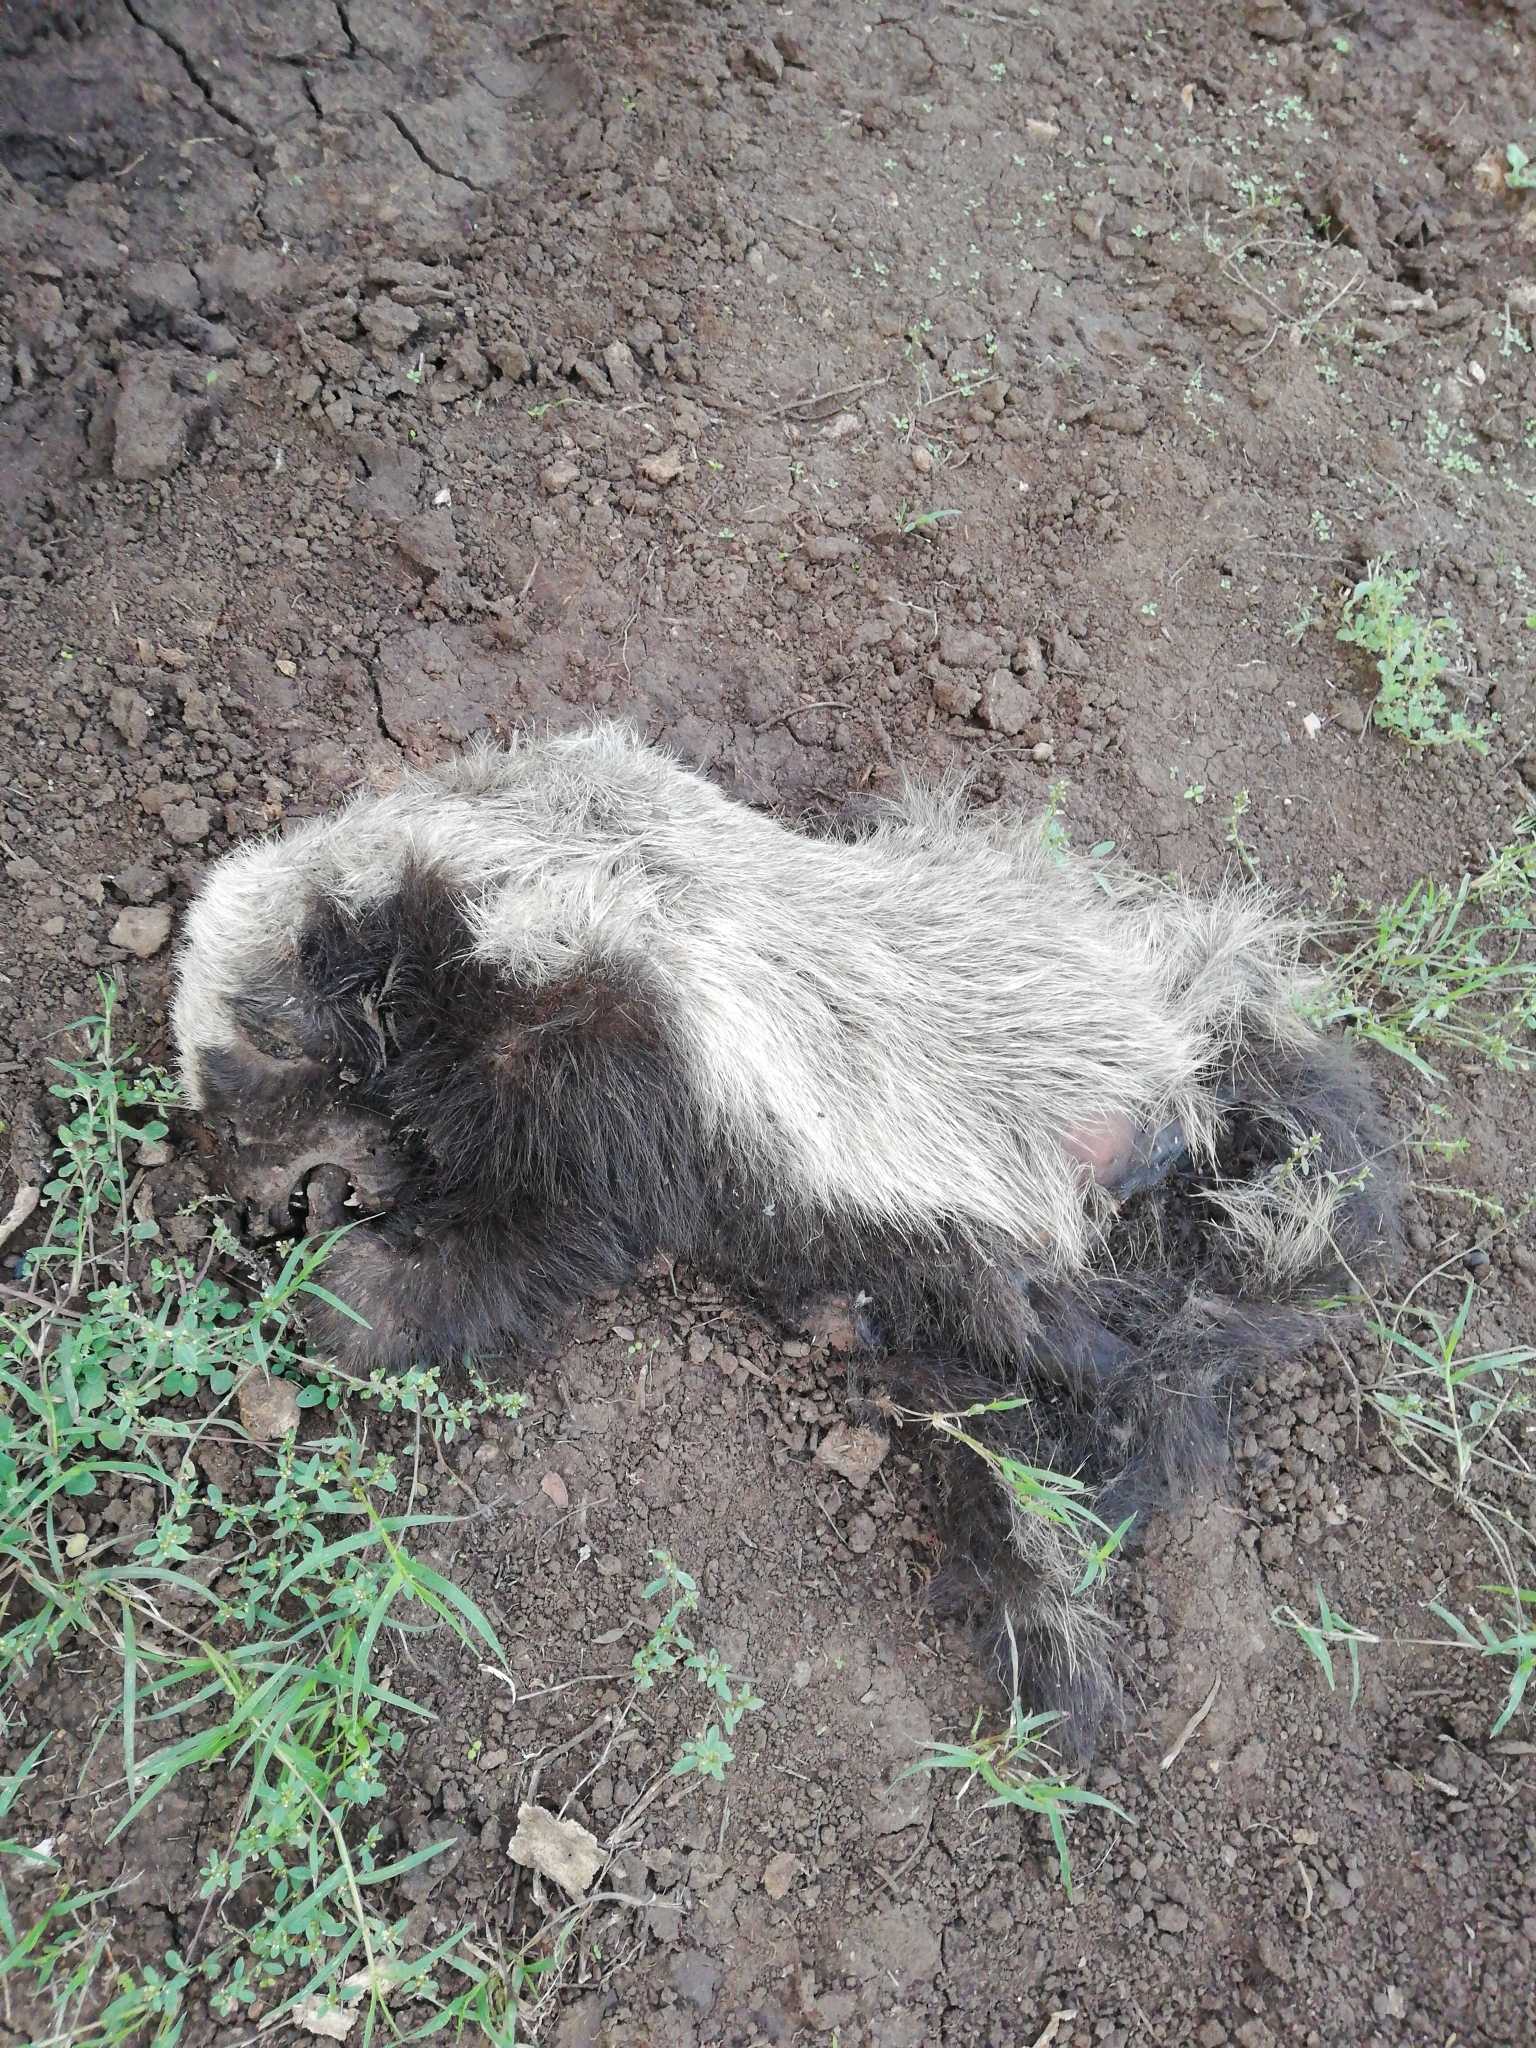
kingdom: Animalia
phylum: Chordata
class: Mammalia
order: Carnivora
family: Mustelidae
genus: Mellivora
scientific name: Mellivora capensis
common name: Honey badger
